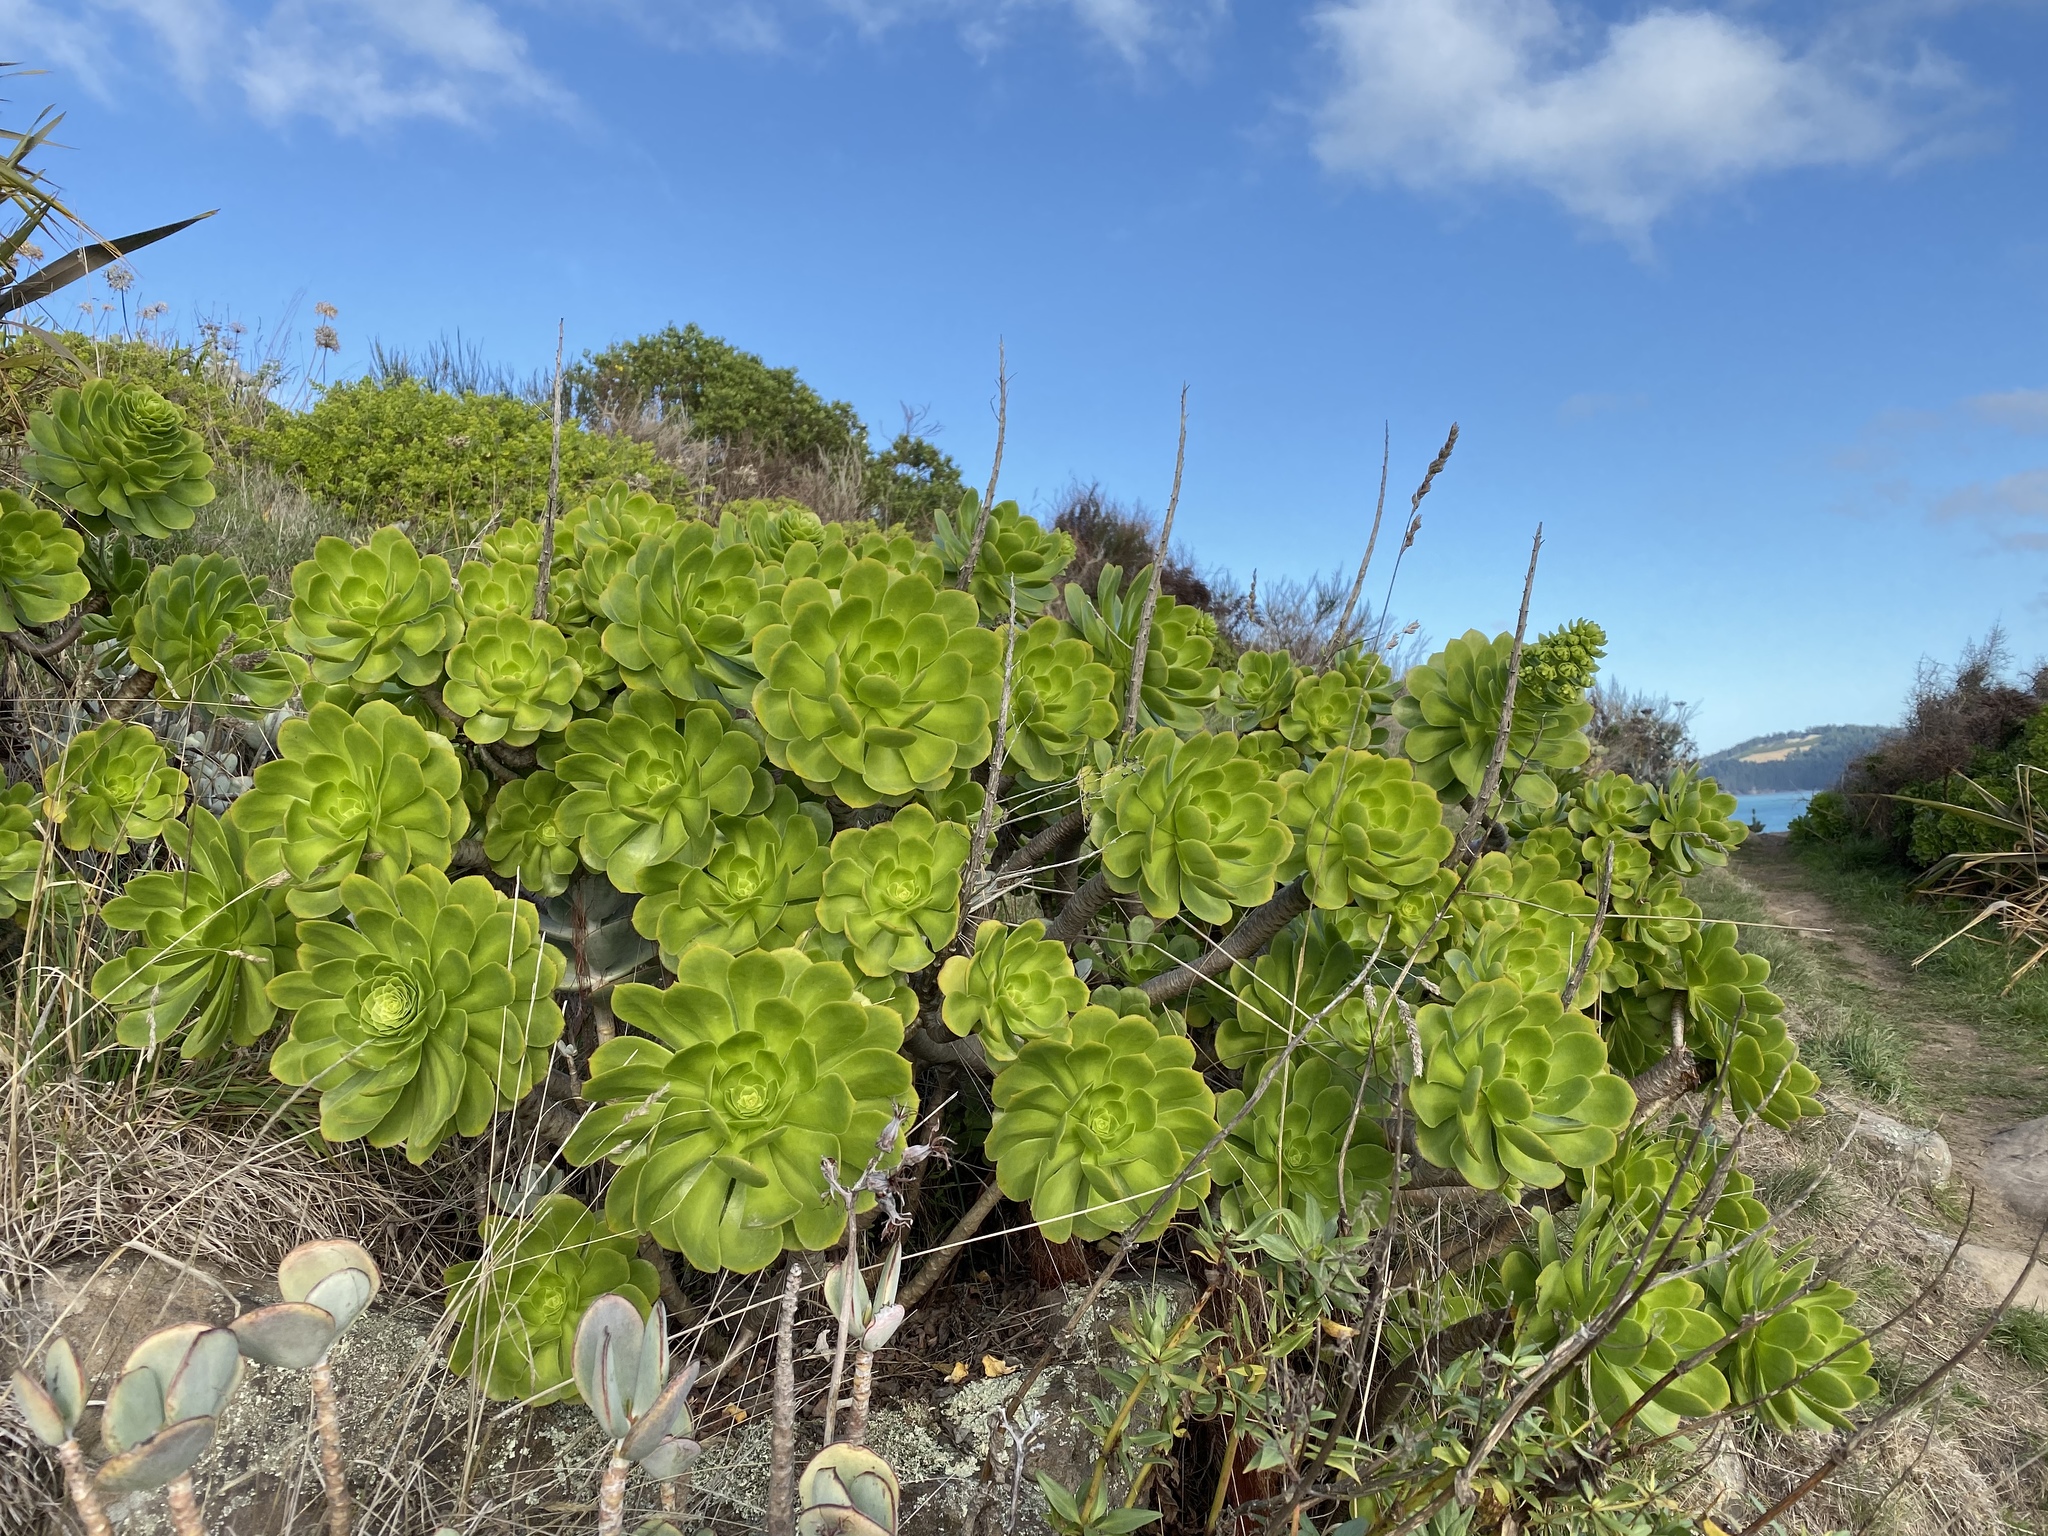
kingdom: Plantae
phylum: Tracheophyta
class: Magnoliopsida
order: Saxifragales
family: Crassulaceae
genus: Aeonium
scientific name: Aeonium arboreum
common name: Tree aeonium
